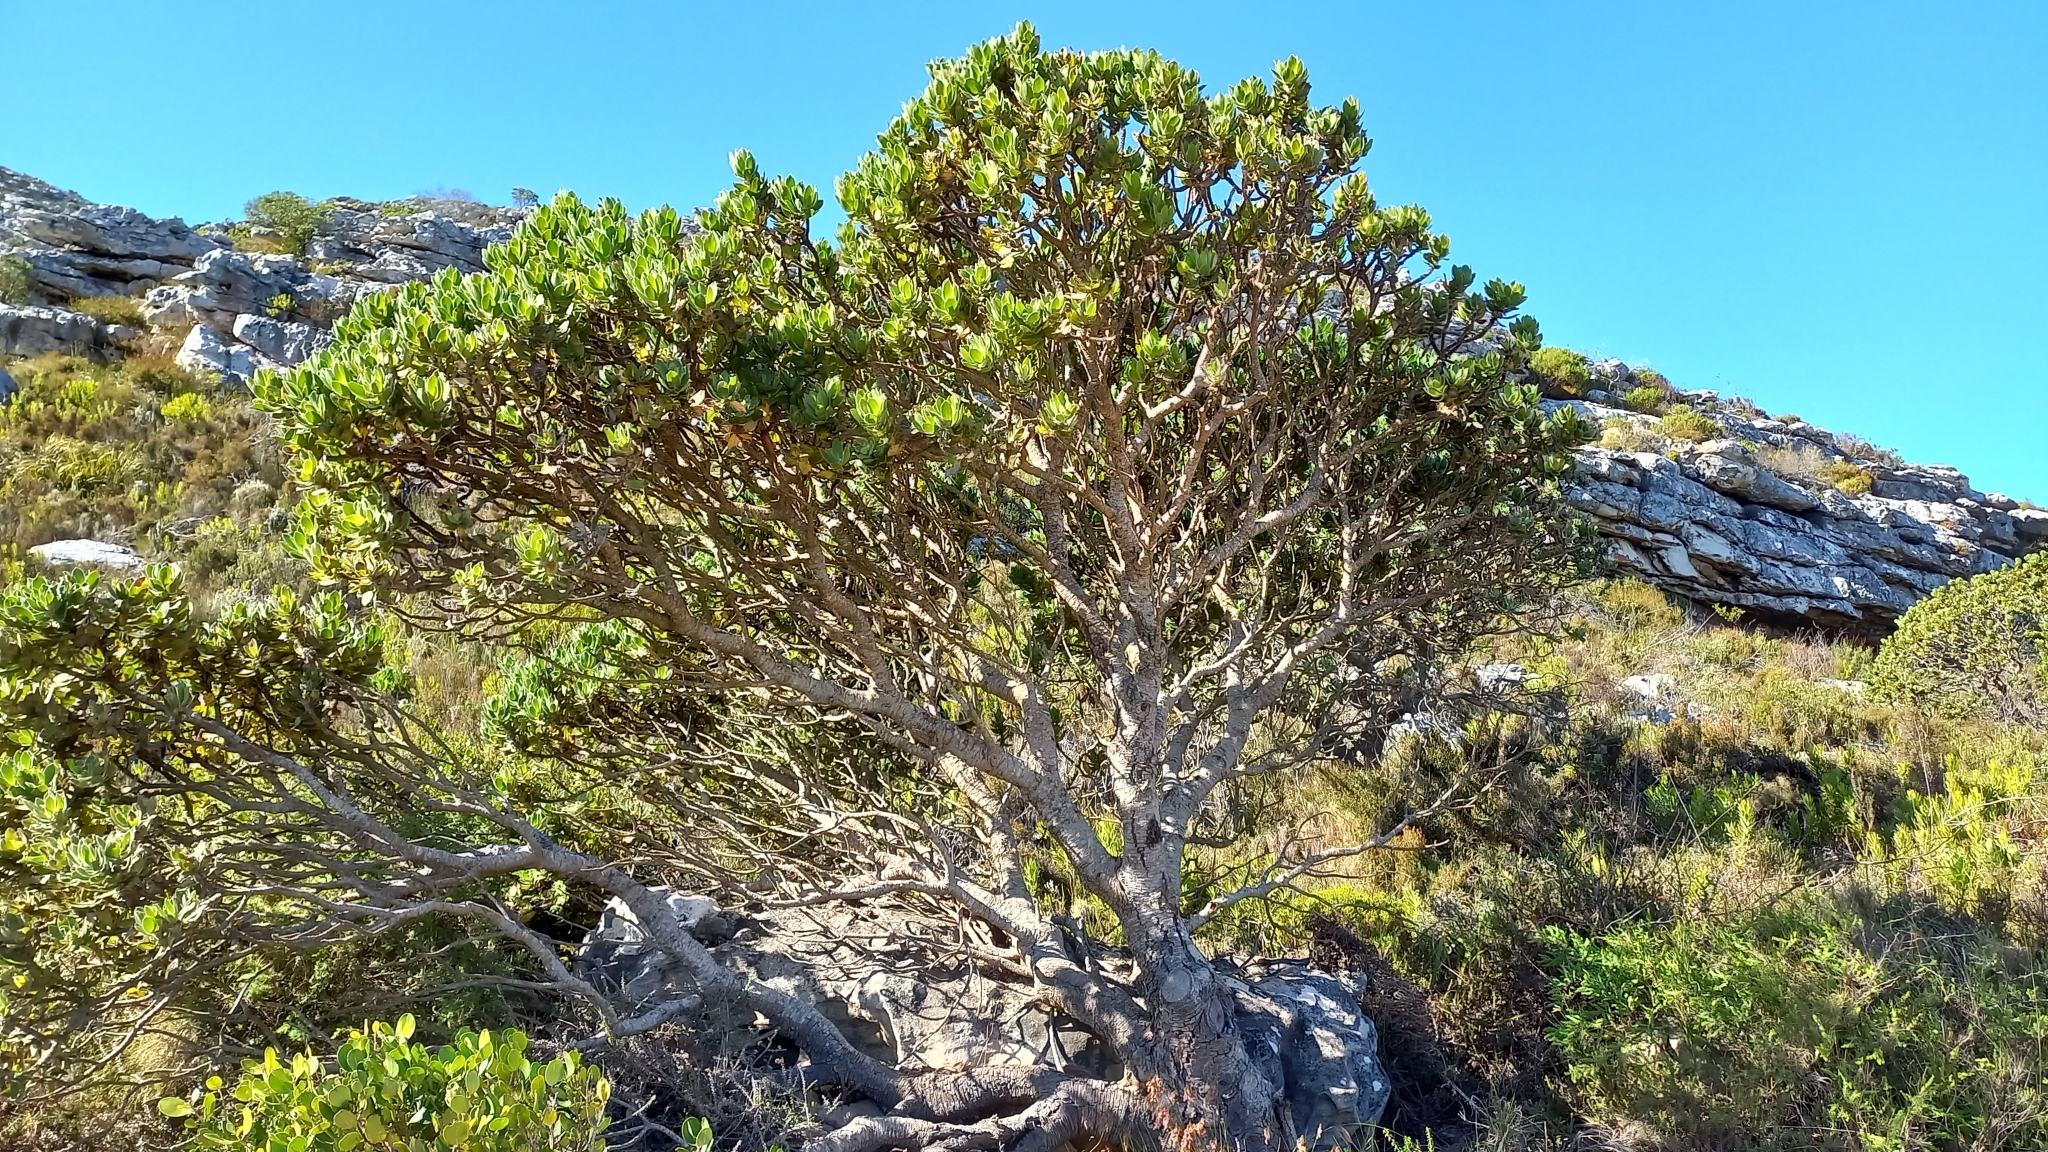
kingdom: Plantae
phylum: Tracheophyta
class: Magnoliopsida
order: Proteales
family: Proteaceae
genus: Leucospermum
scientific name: Leucospermum conocarpodendron
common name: Tree pincushion
